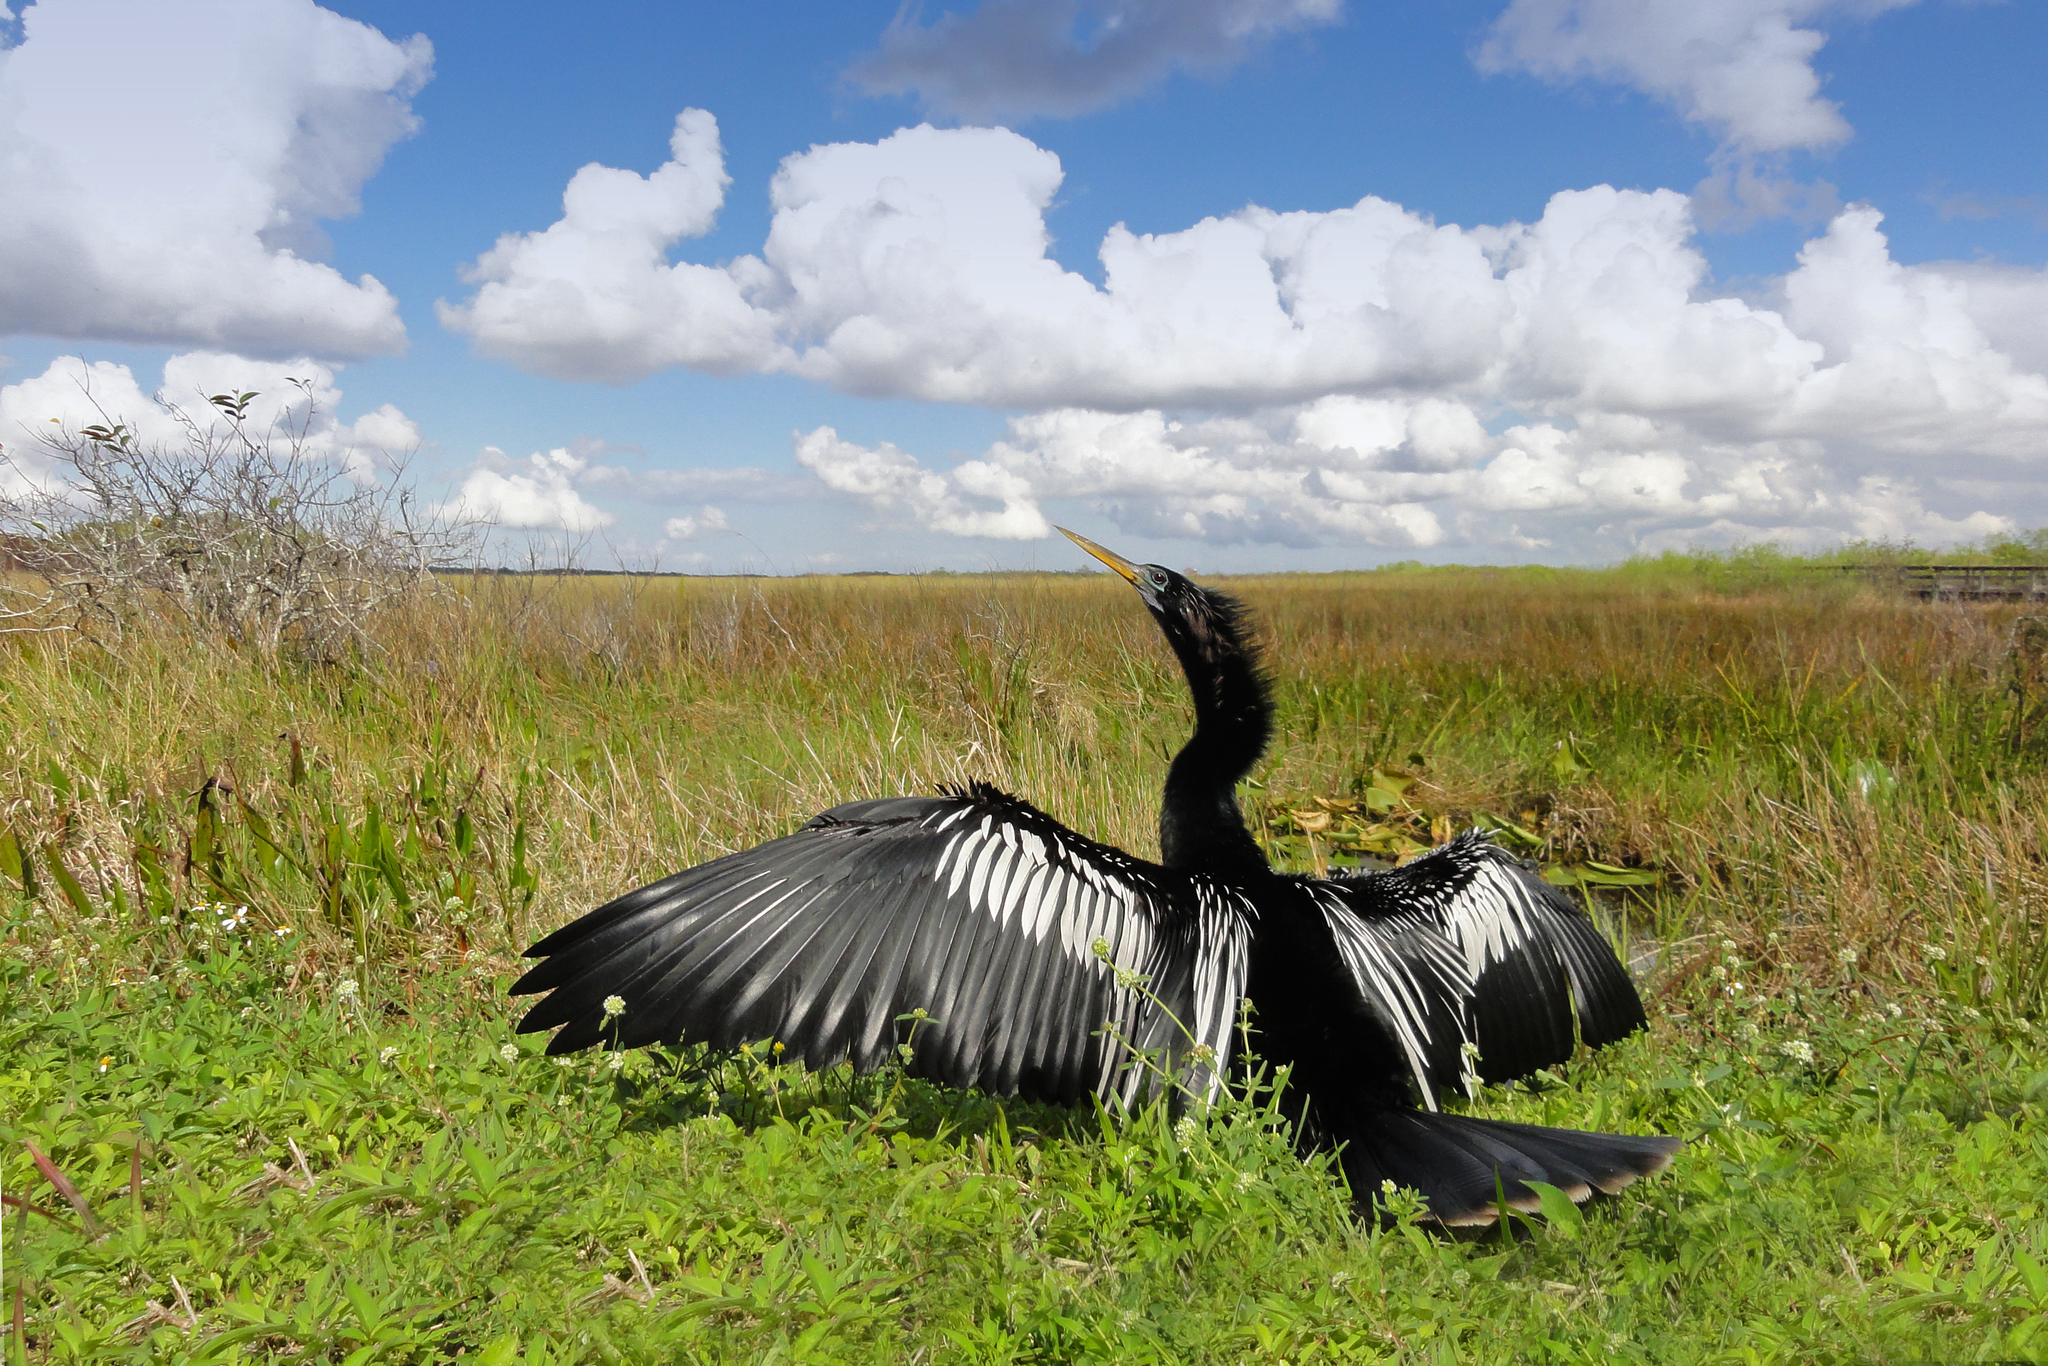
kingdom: Animalia
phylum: Chordata
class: Aves
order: Suliformes
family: Anhingidae
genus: Anhinga
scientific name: Anhinga anhinga
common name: Anhinga
